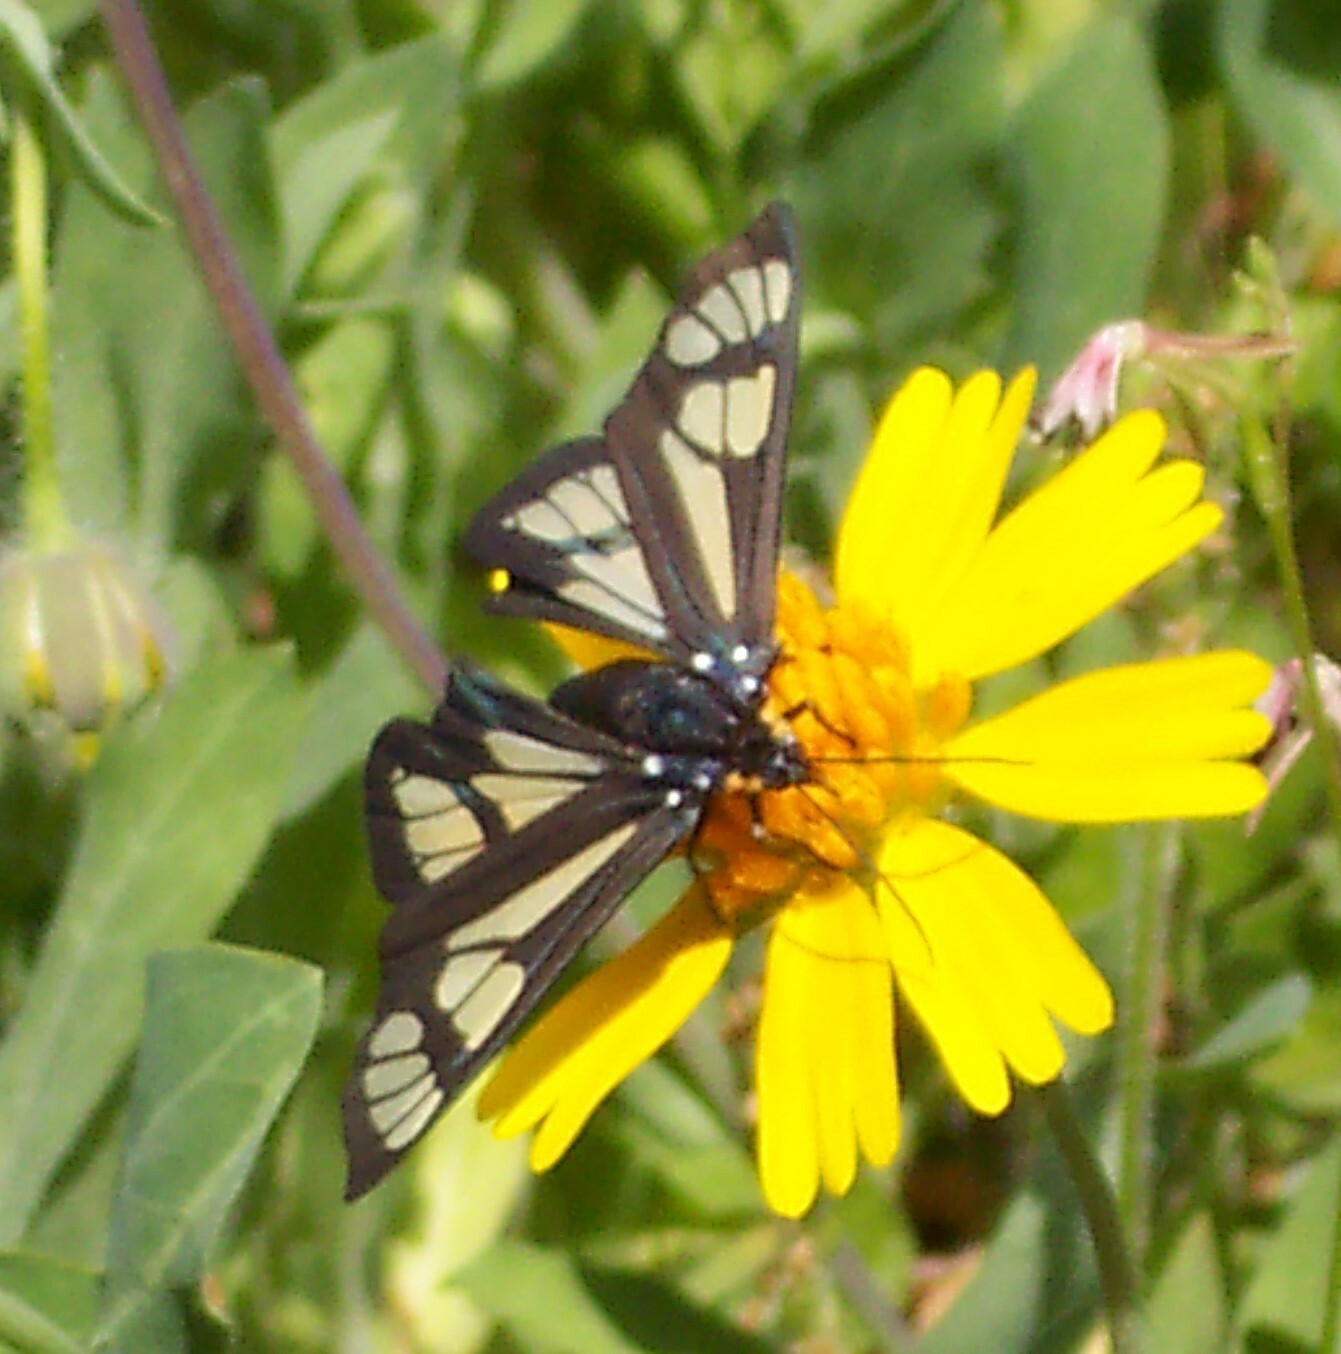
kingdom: Animalia
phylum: Arthropoda
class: Insecta
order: Lepidoptera
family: Erebidae
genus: Gnophaela
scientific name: Gnophaela aequinoctialis
